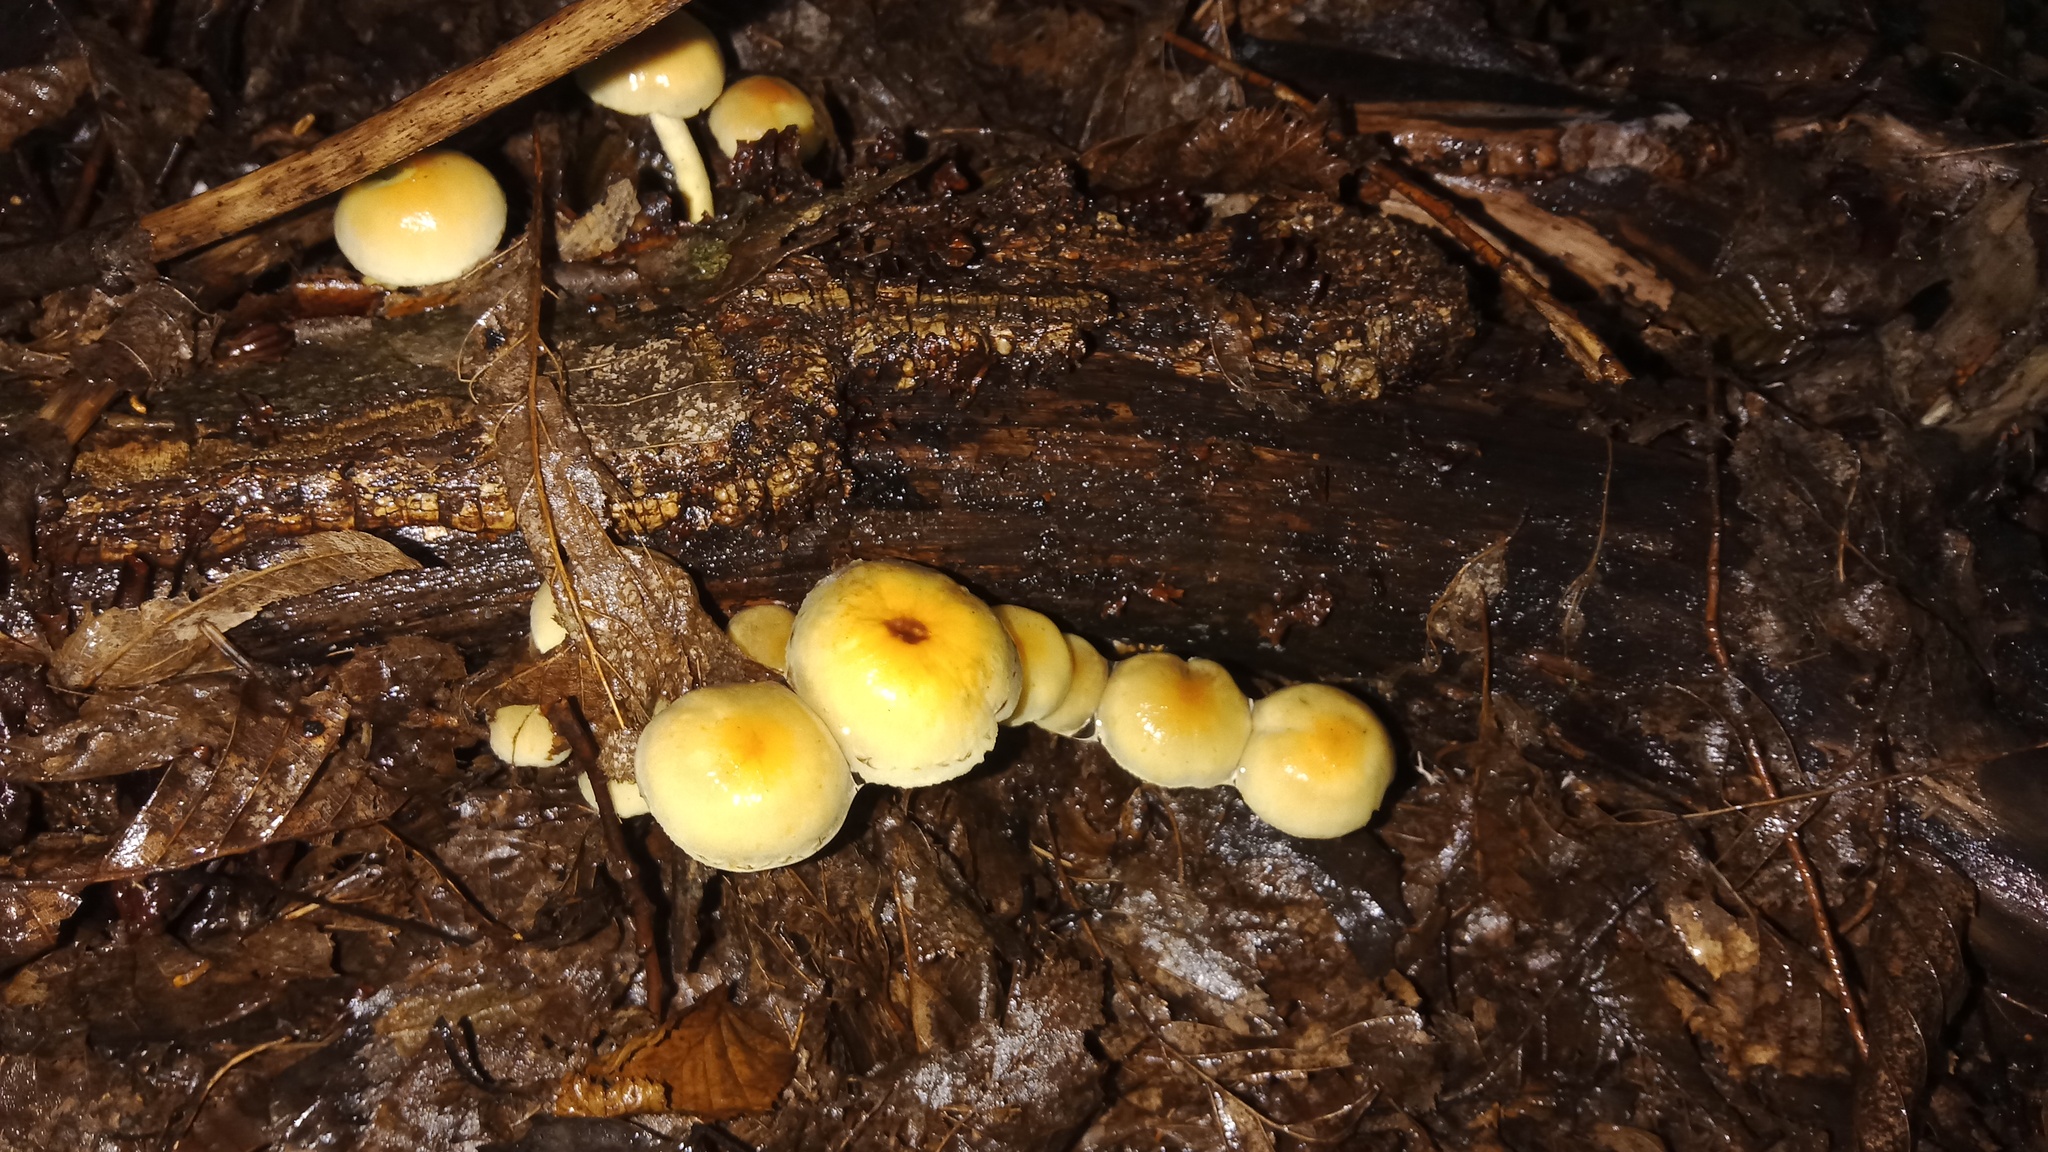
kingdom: Fungi
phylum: Basidiomycota
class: Agaricomycetes
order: Agaricales
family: Strophariaceae
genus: Hypholoma
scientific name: Hypholoma fasciculare
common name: Sulphur tuft
